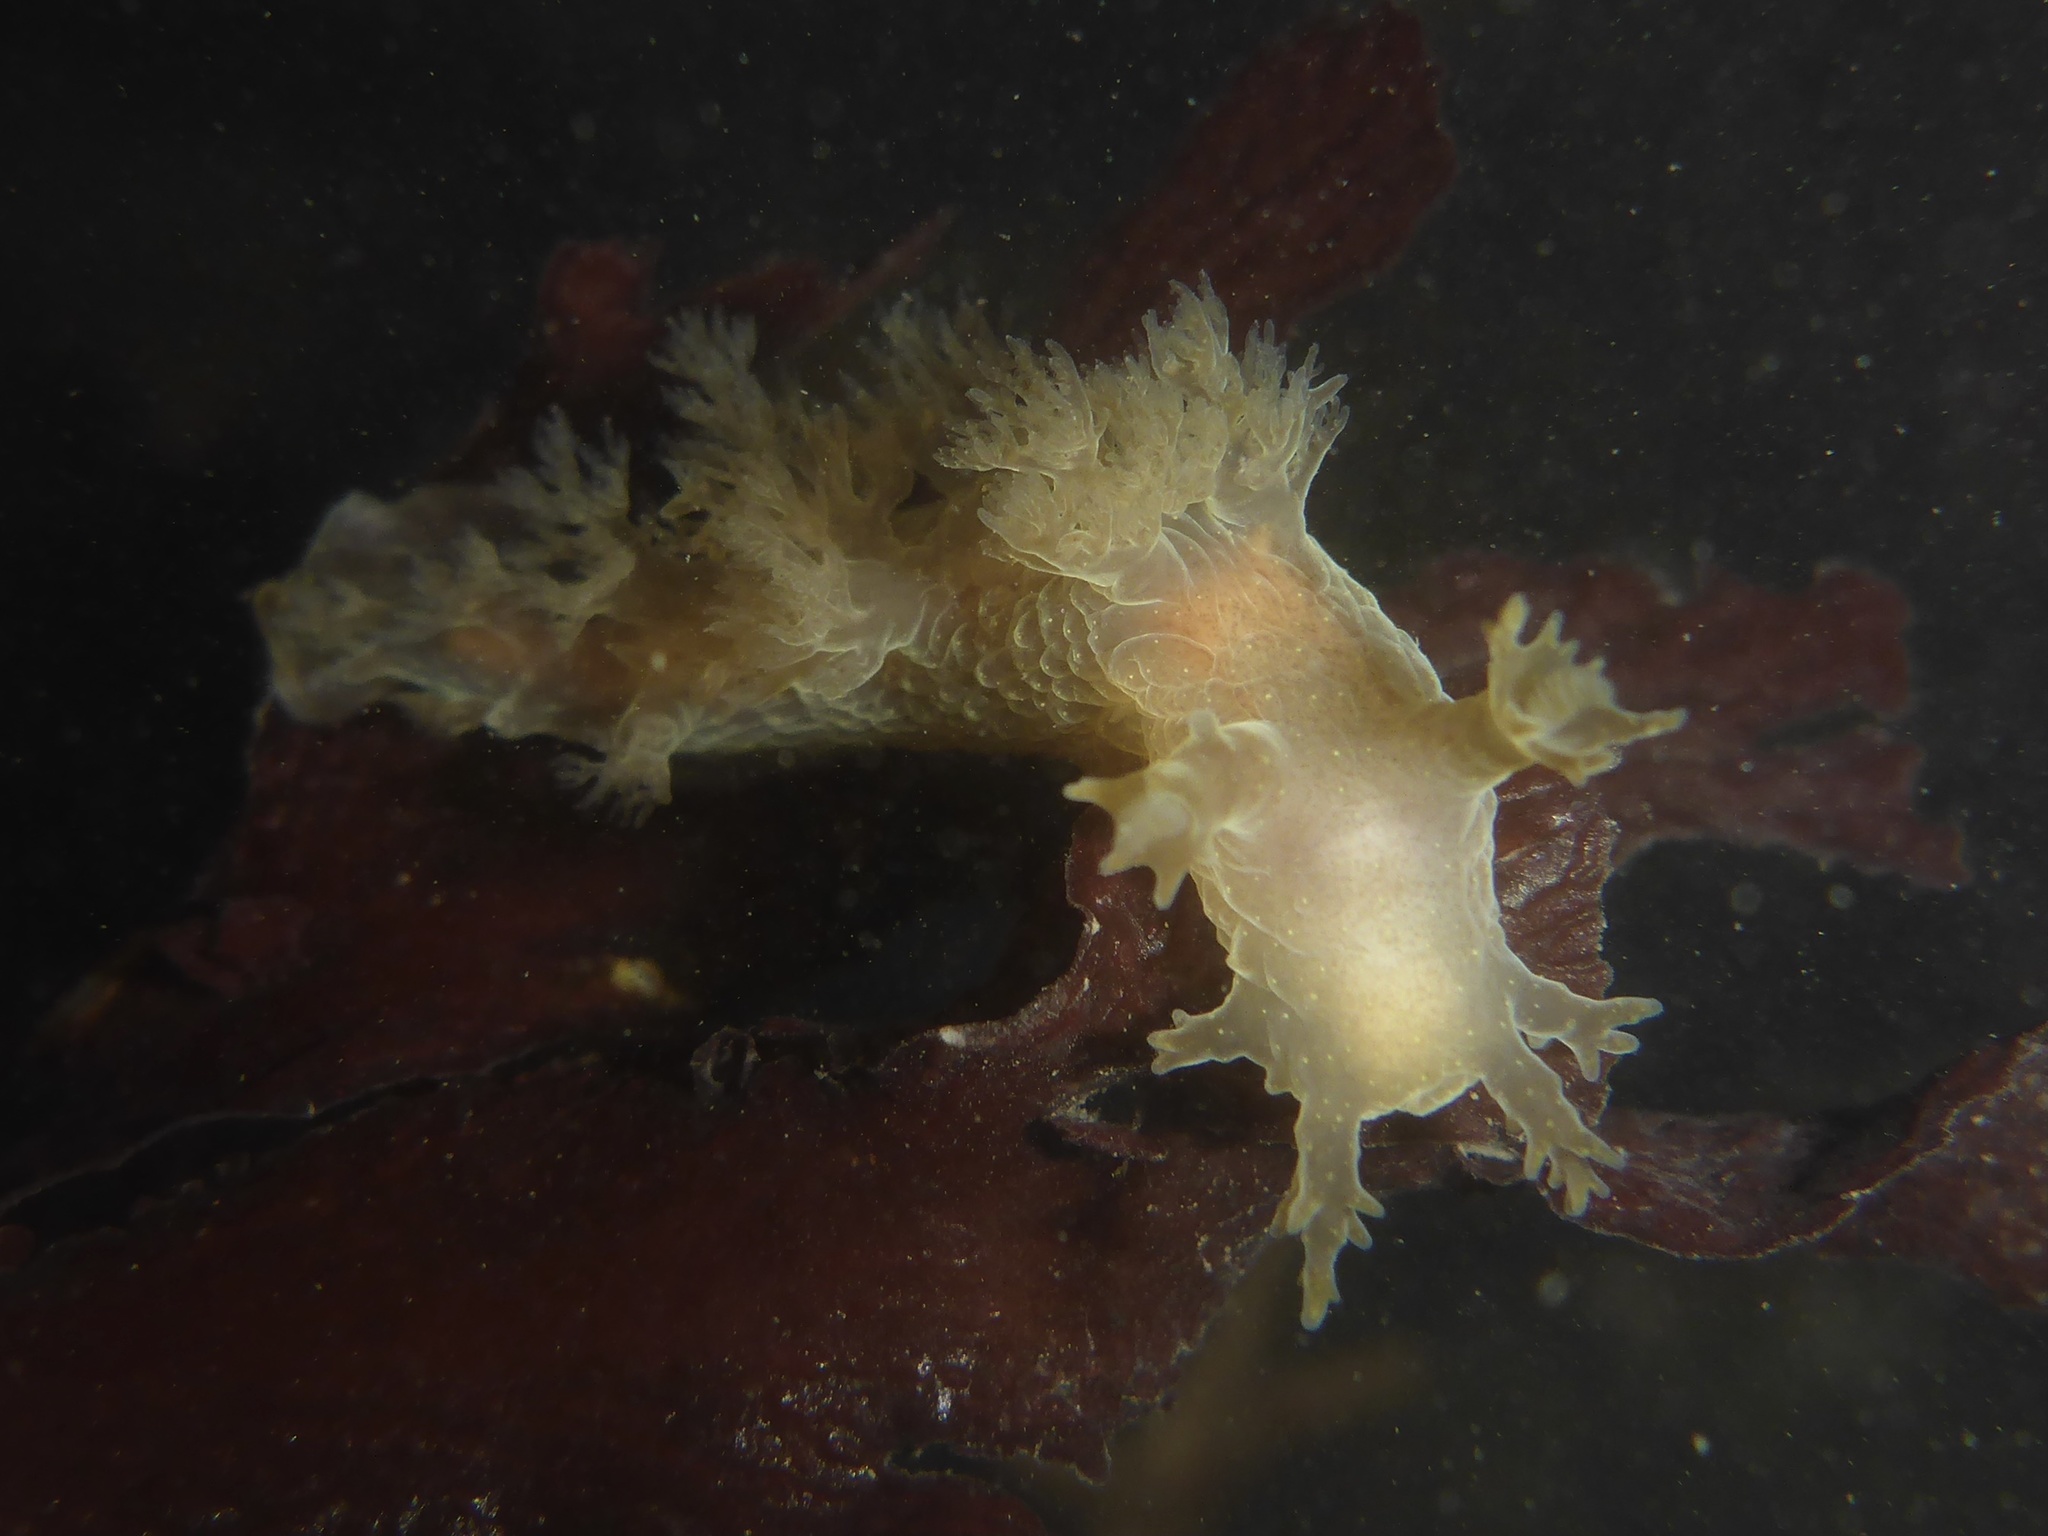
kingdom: Animalia
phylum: Mollusca
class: Gastropoda
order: Nudibranchia
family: Dendronotidae
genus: Dendronotus
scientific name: Dendronotus subramosus
